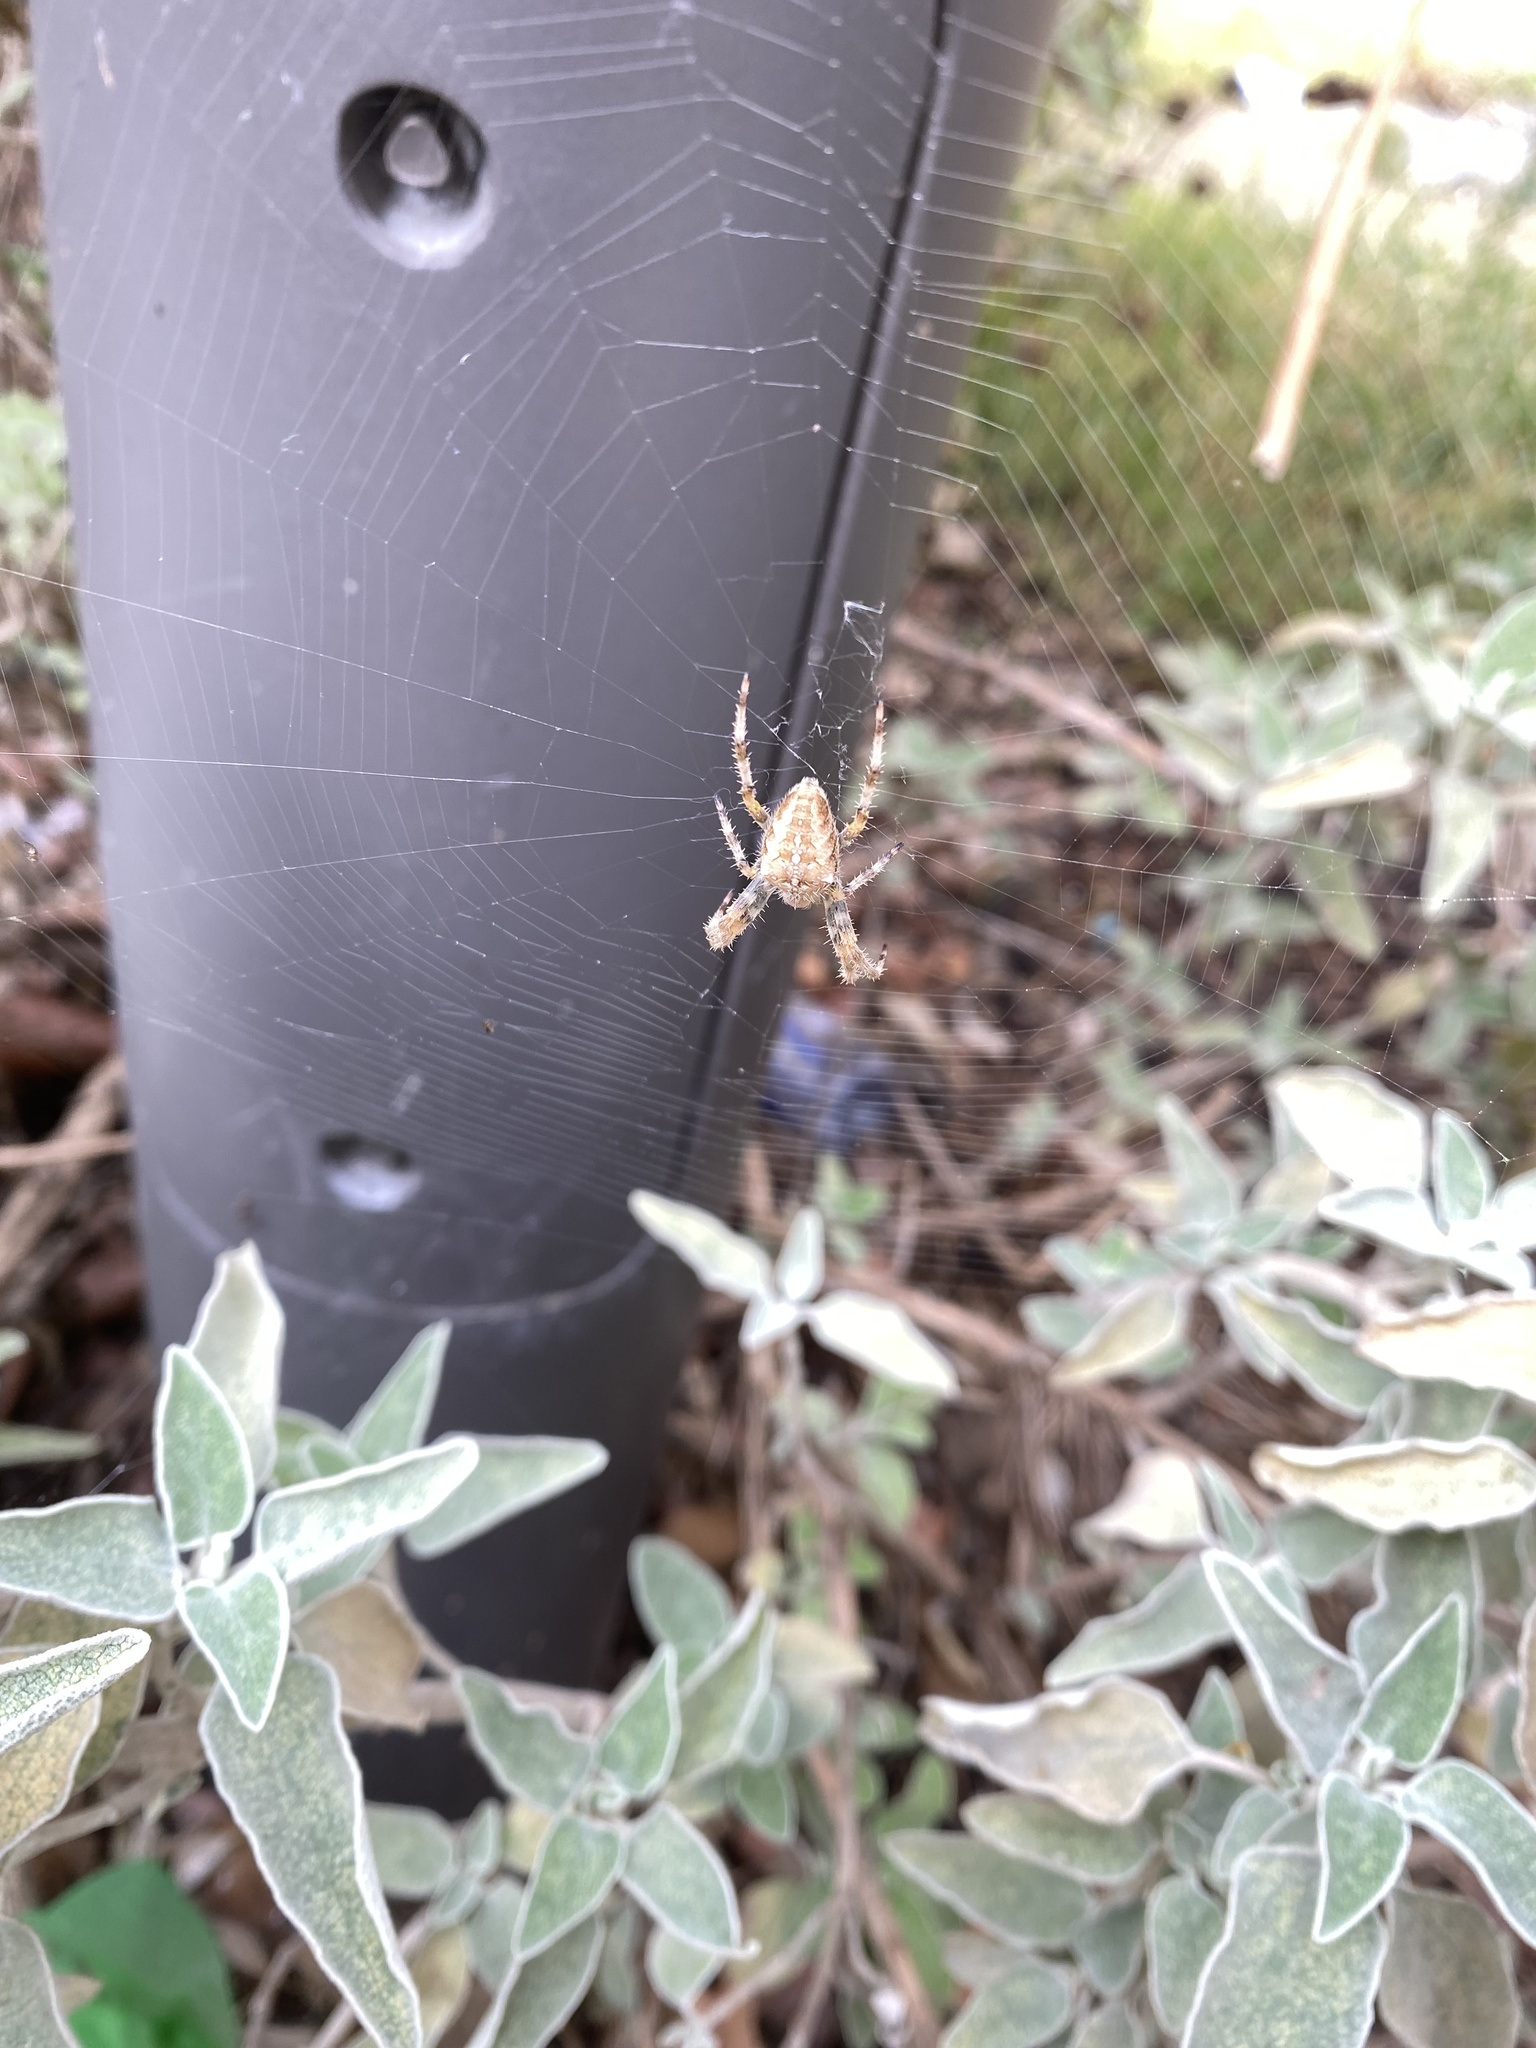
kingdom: Animalia
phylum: Arthropoda
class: Arachnida
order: Araneae
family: Araneidae
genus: Araneus
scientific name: Araneus diadematus
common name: Cross orbweaver
